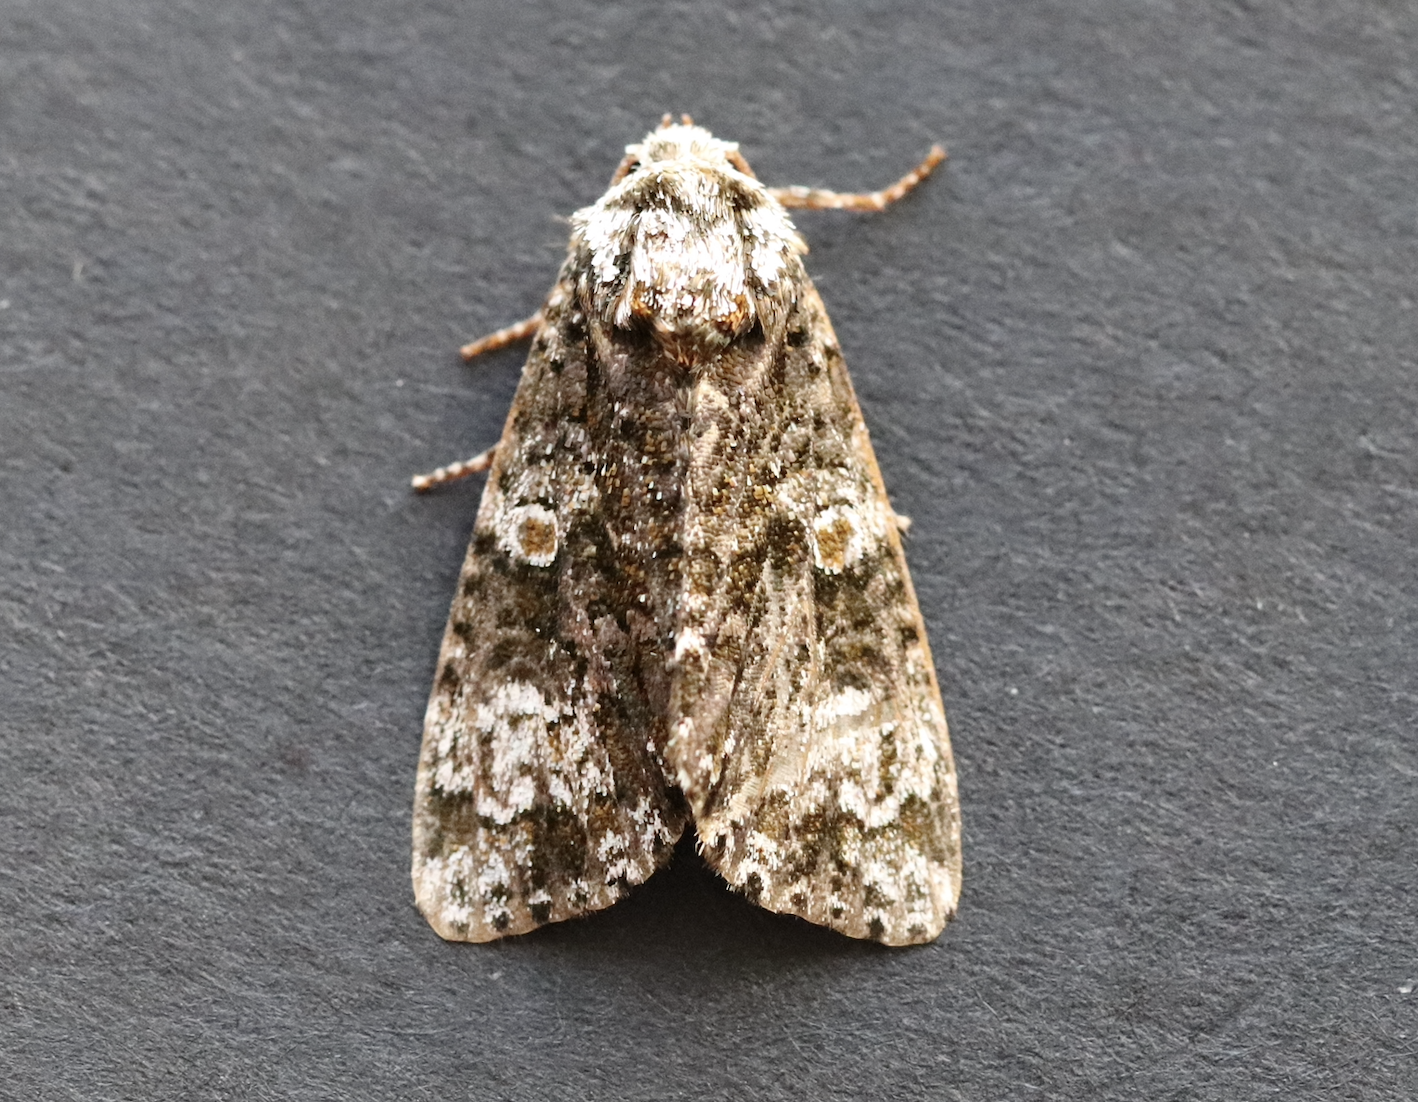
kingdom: Animalia
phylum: Arthropoda
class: Insecta
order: Lepidoptera
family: Noctuidae
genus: Craniophora
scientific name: Craniophora ligustri
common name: Coronet
